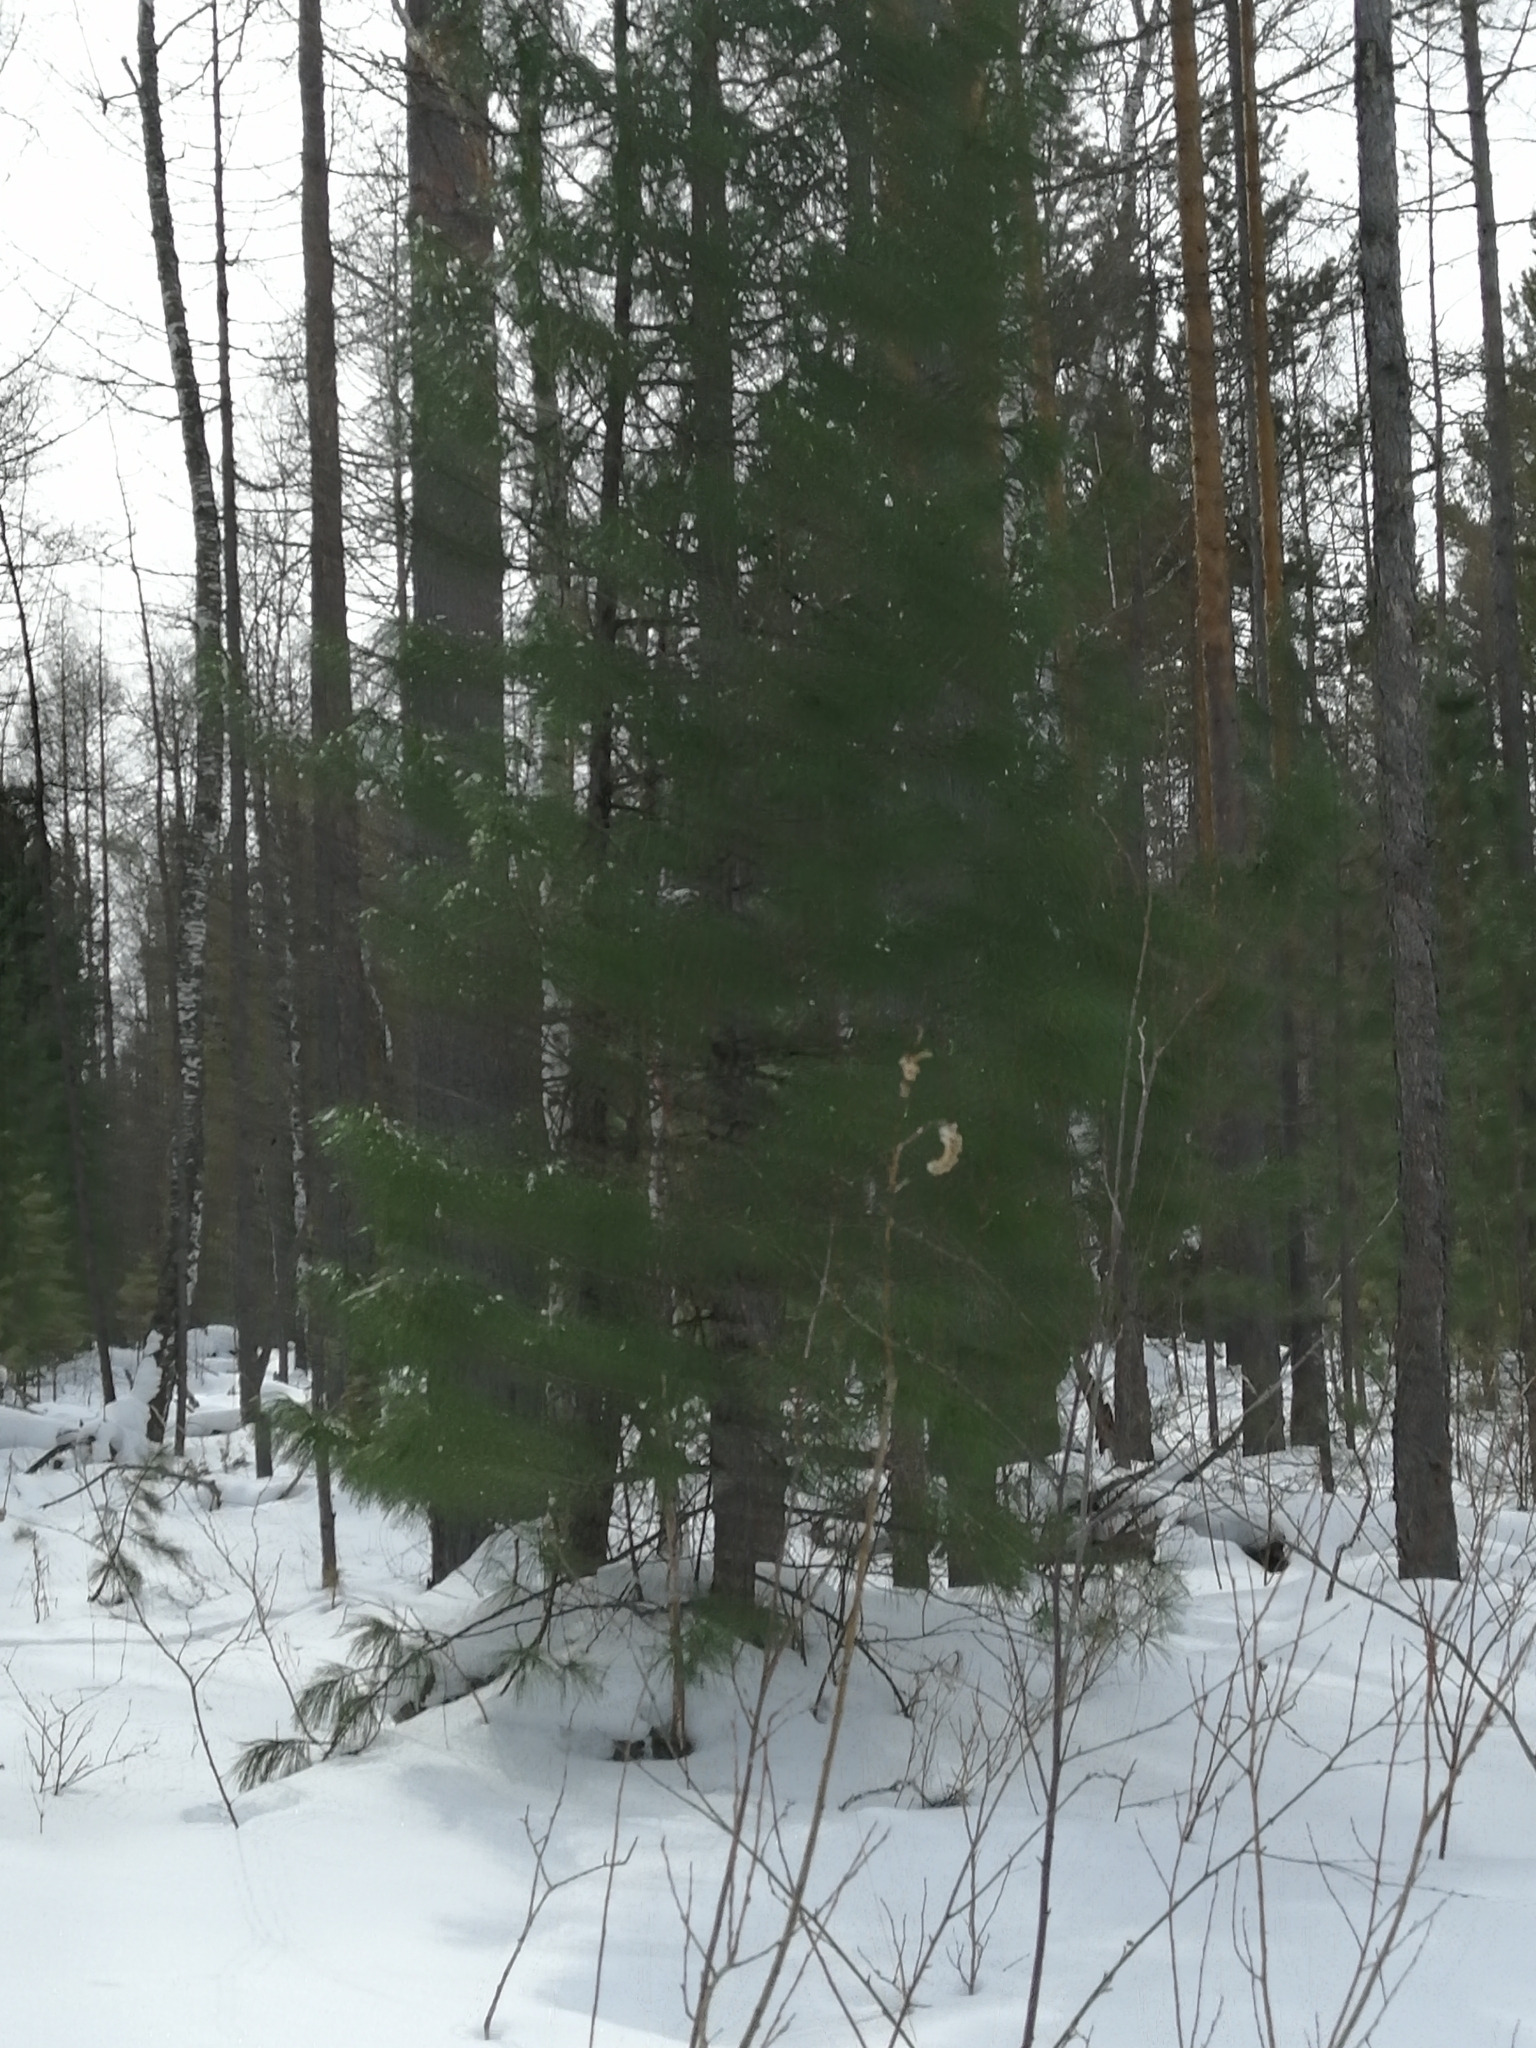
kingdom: Plantae
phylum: Tracheophyta
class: Pinopsida
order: Pinales
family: Pinaceae
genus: Pinus
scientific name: Pinus sibirica
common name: Siberian pine
